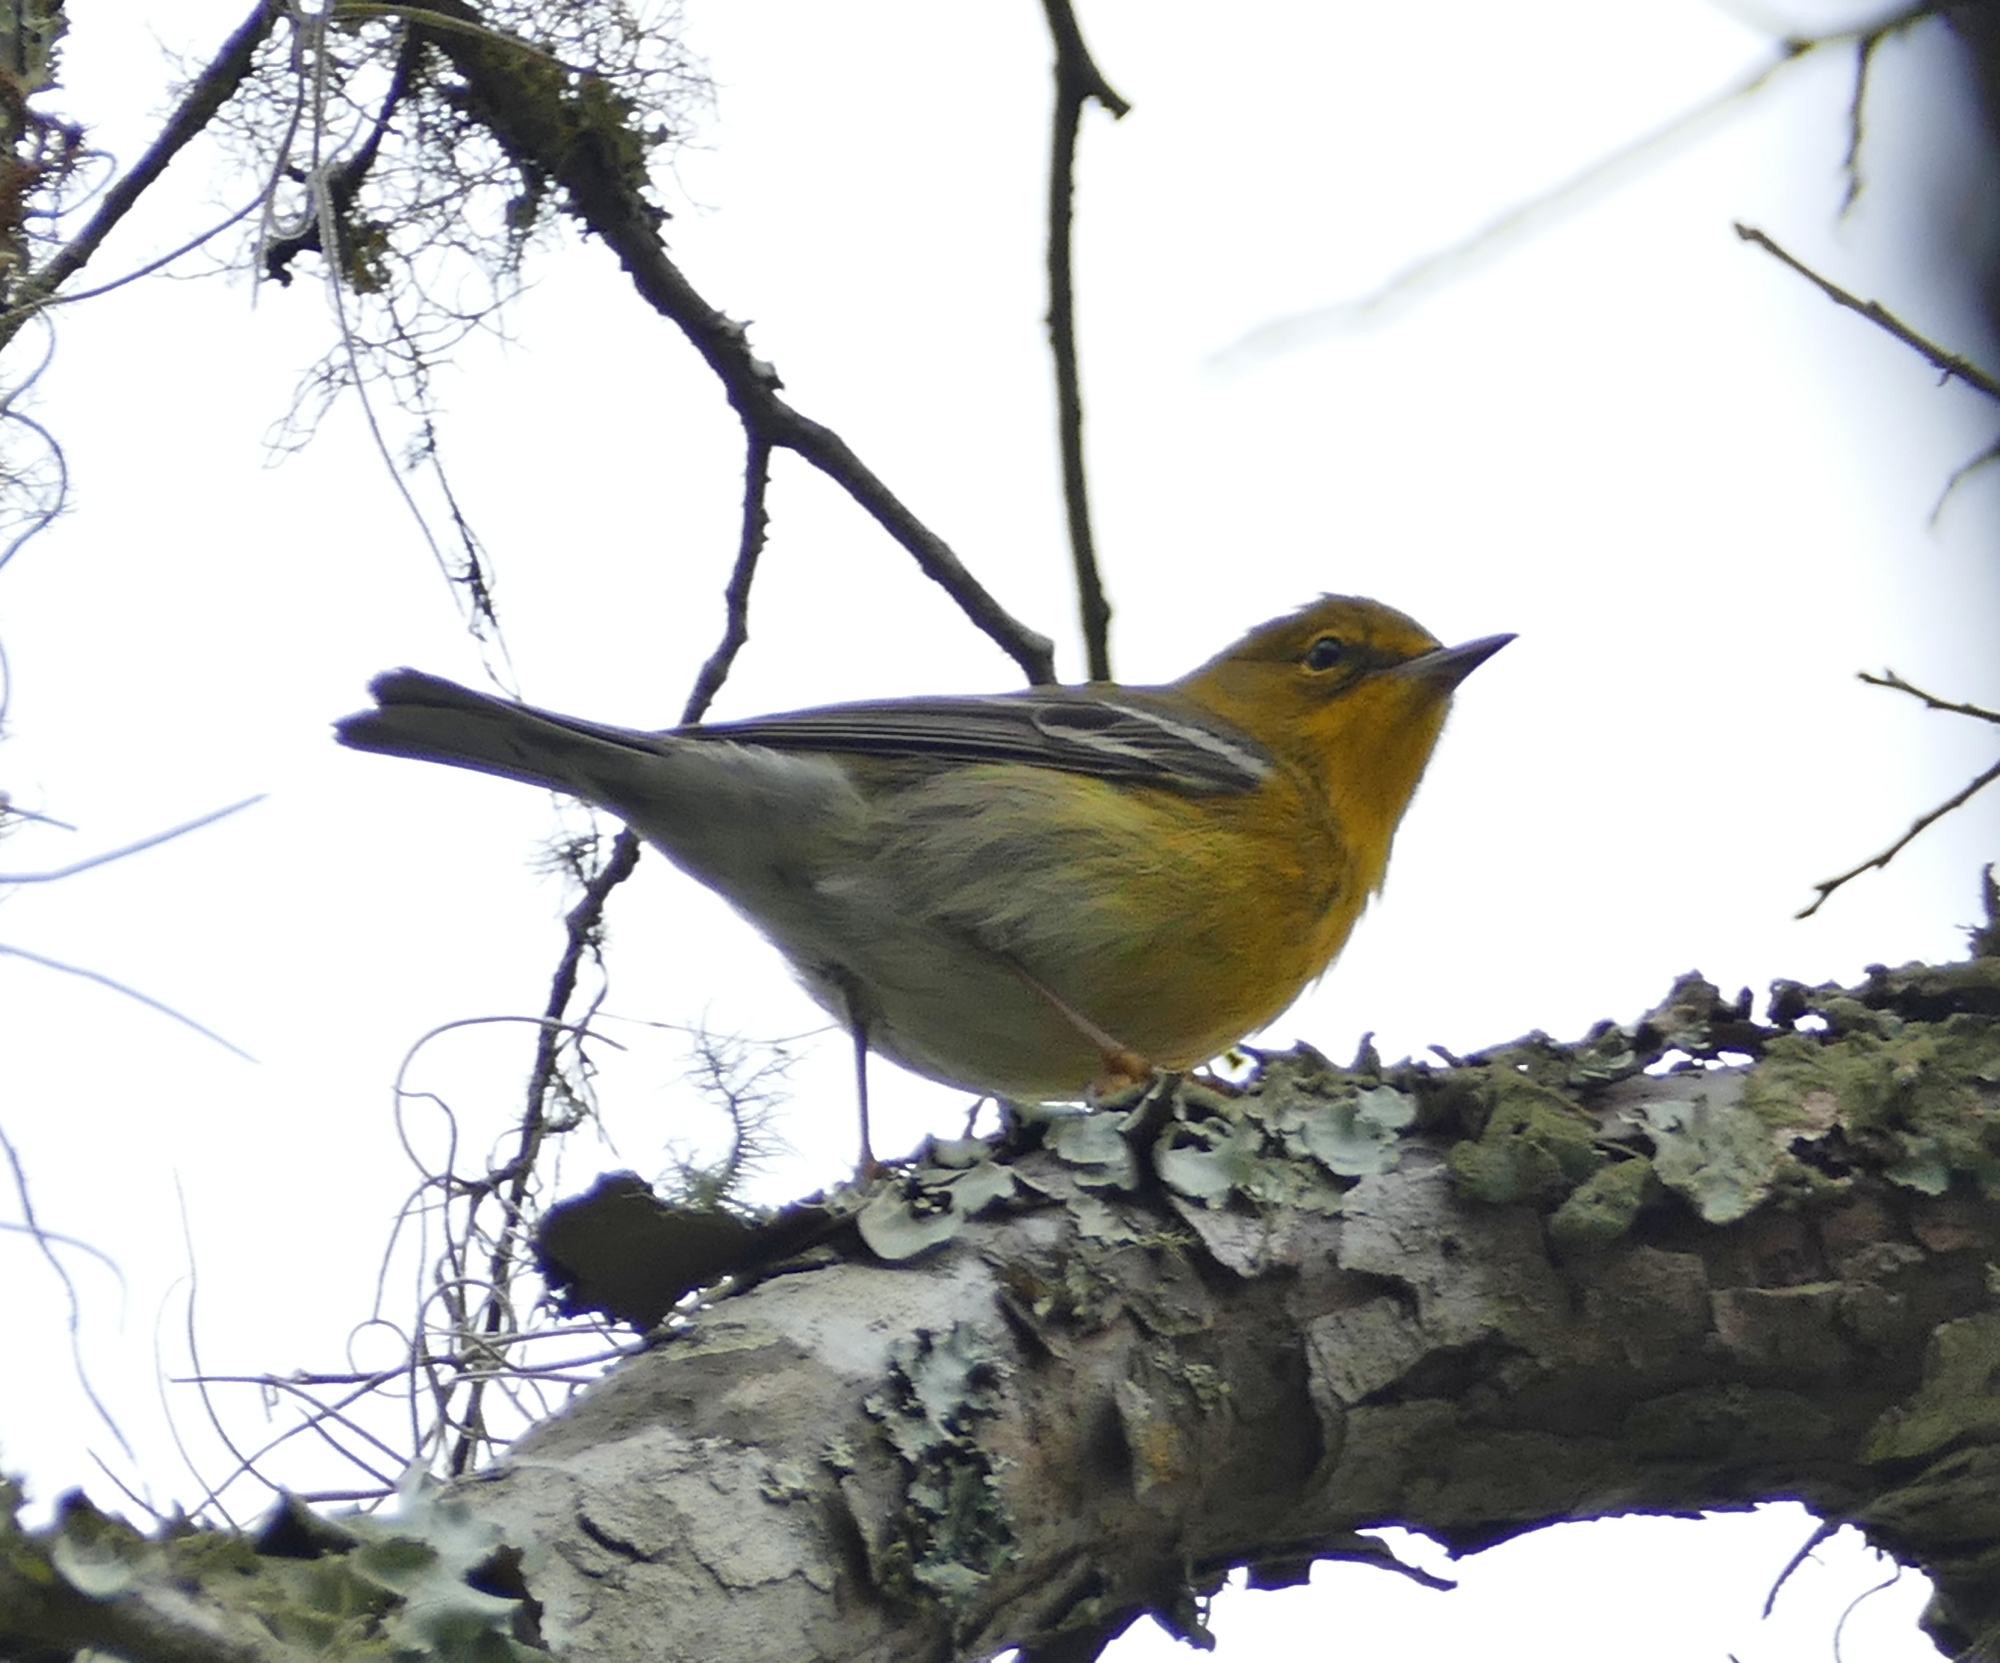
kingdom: Animalia
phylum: Chordata
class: Aves
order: Passeriformes
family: Parulidae
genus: Setophaga
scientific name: Setophaga pinus
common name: Pine warbler
